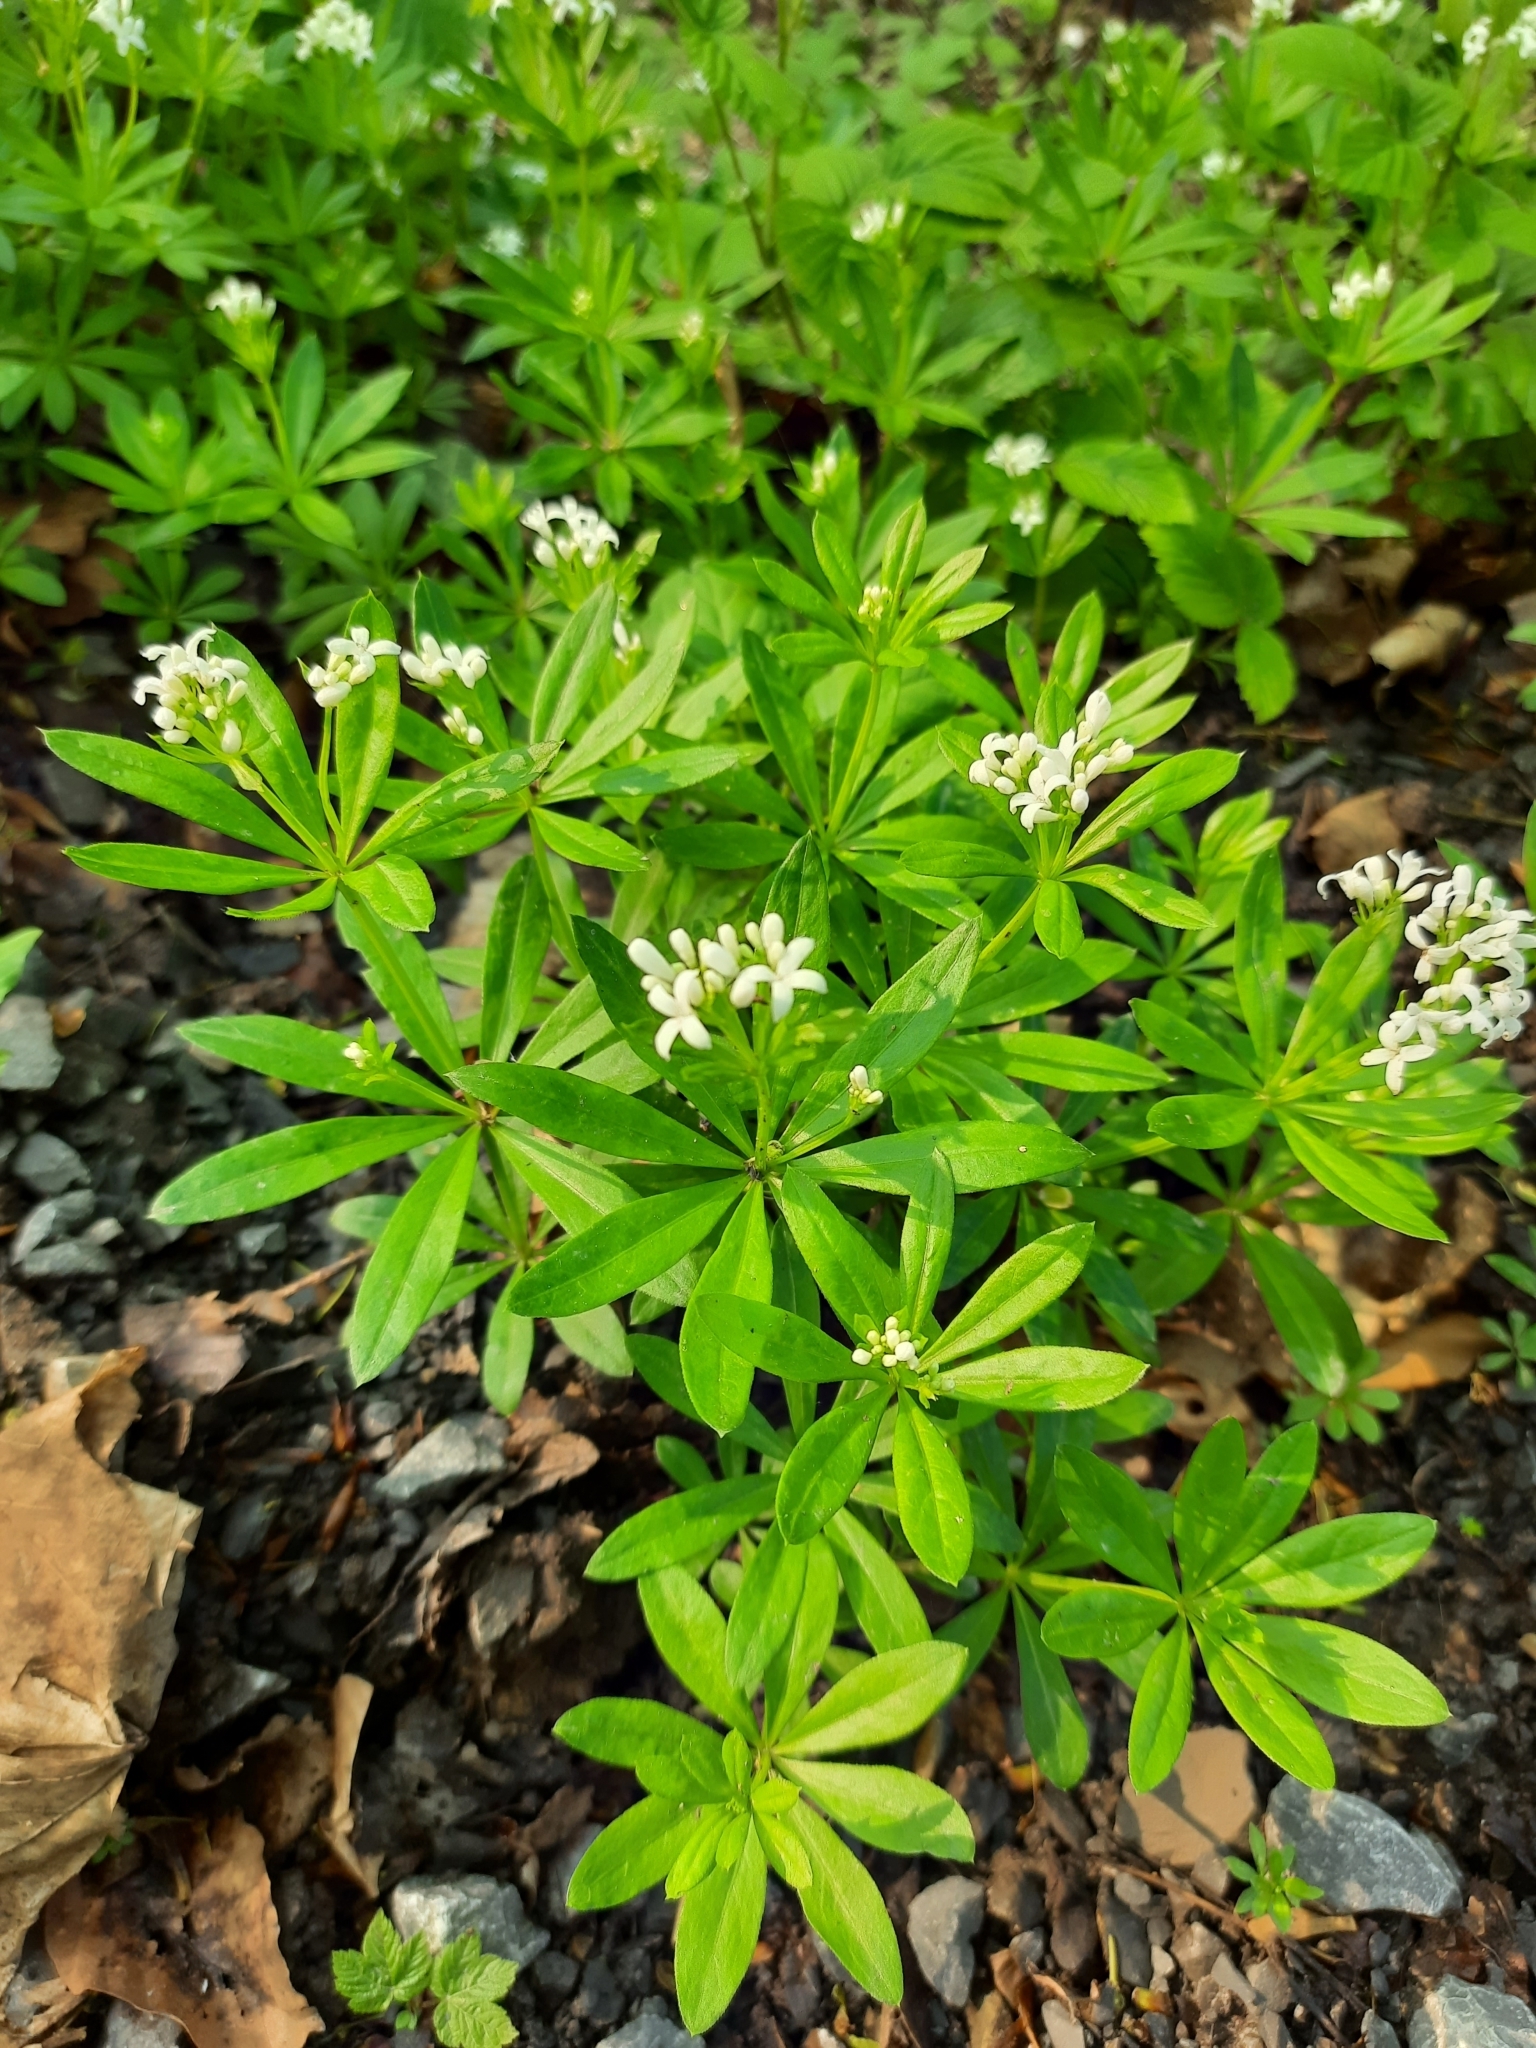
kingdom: Plantae
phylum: Tracheophyta
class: Magnoliopsida
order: Gentianales
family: Rubiaceae
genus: Galium
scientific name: Galium odoratum
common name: Sweet woodruff
